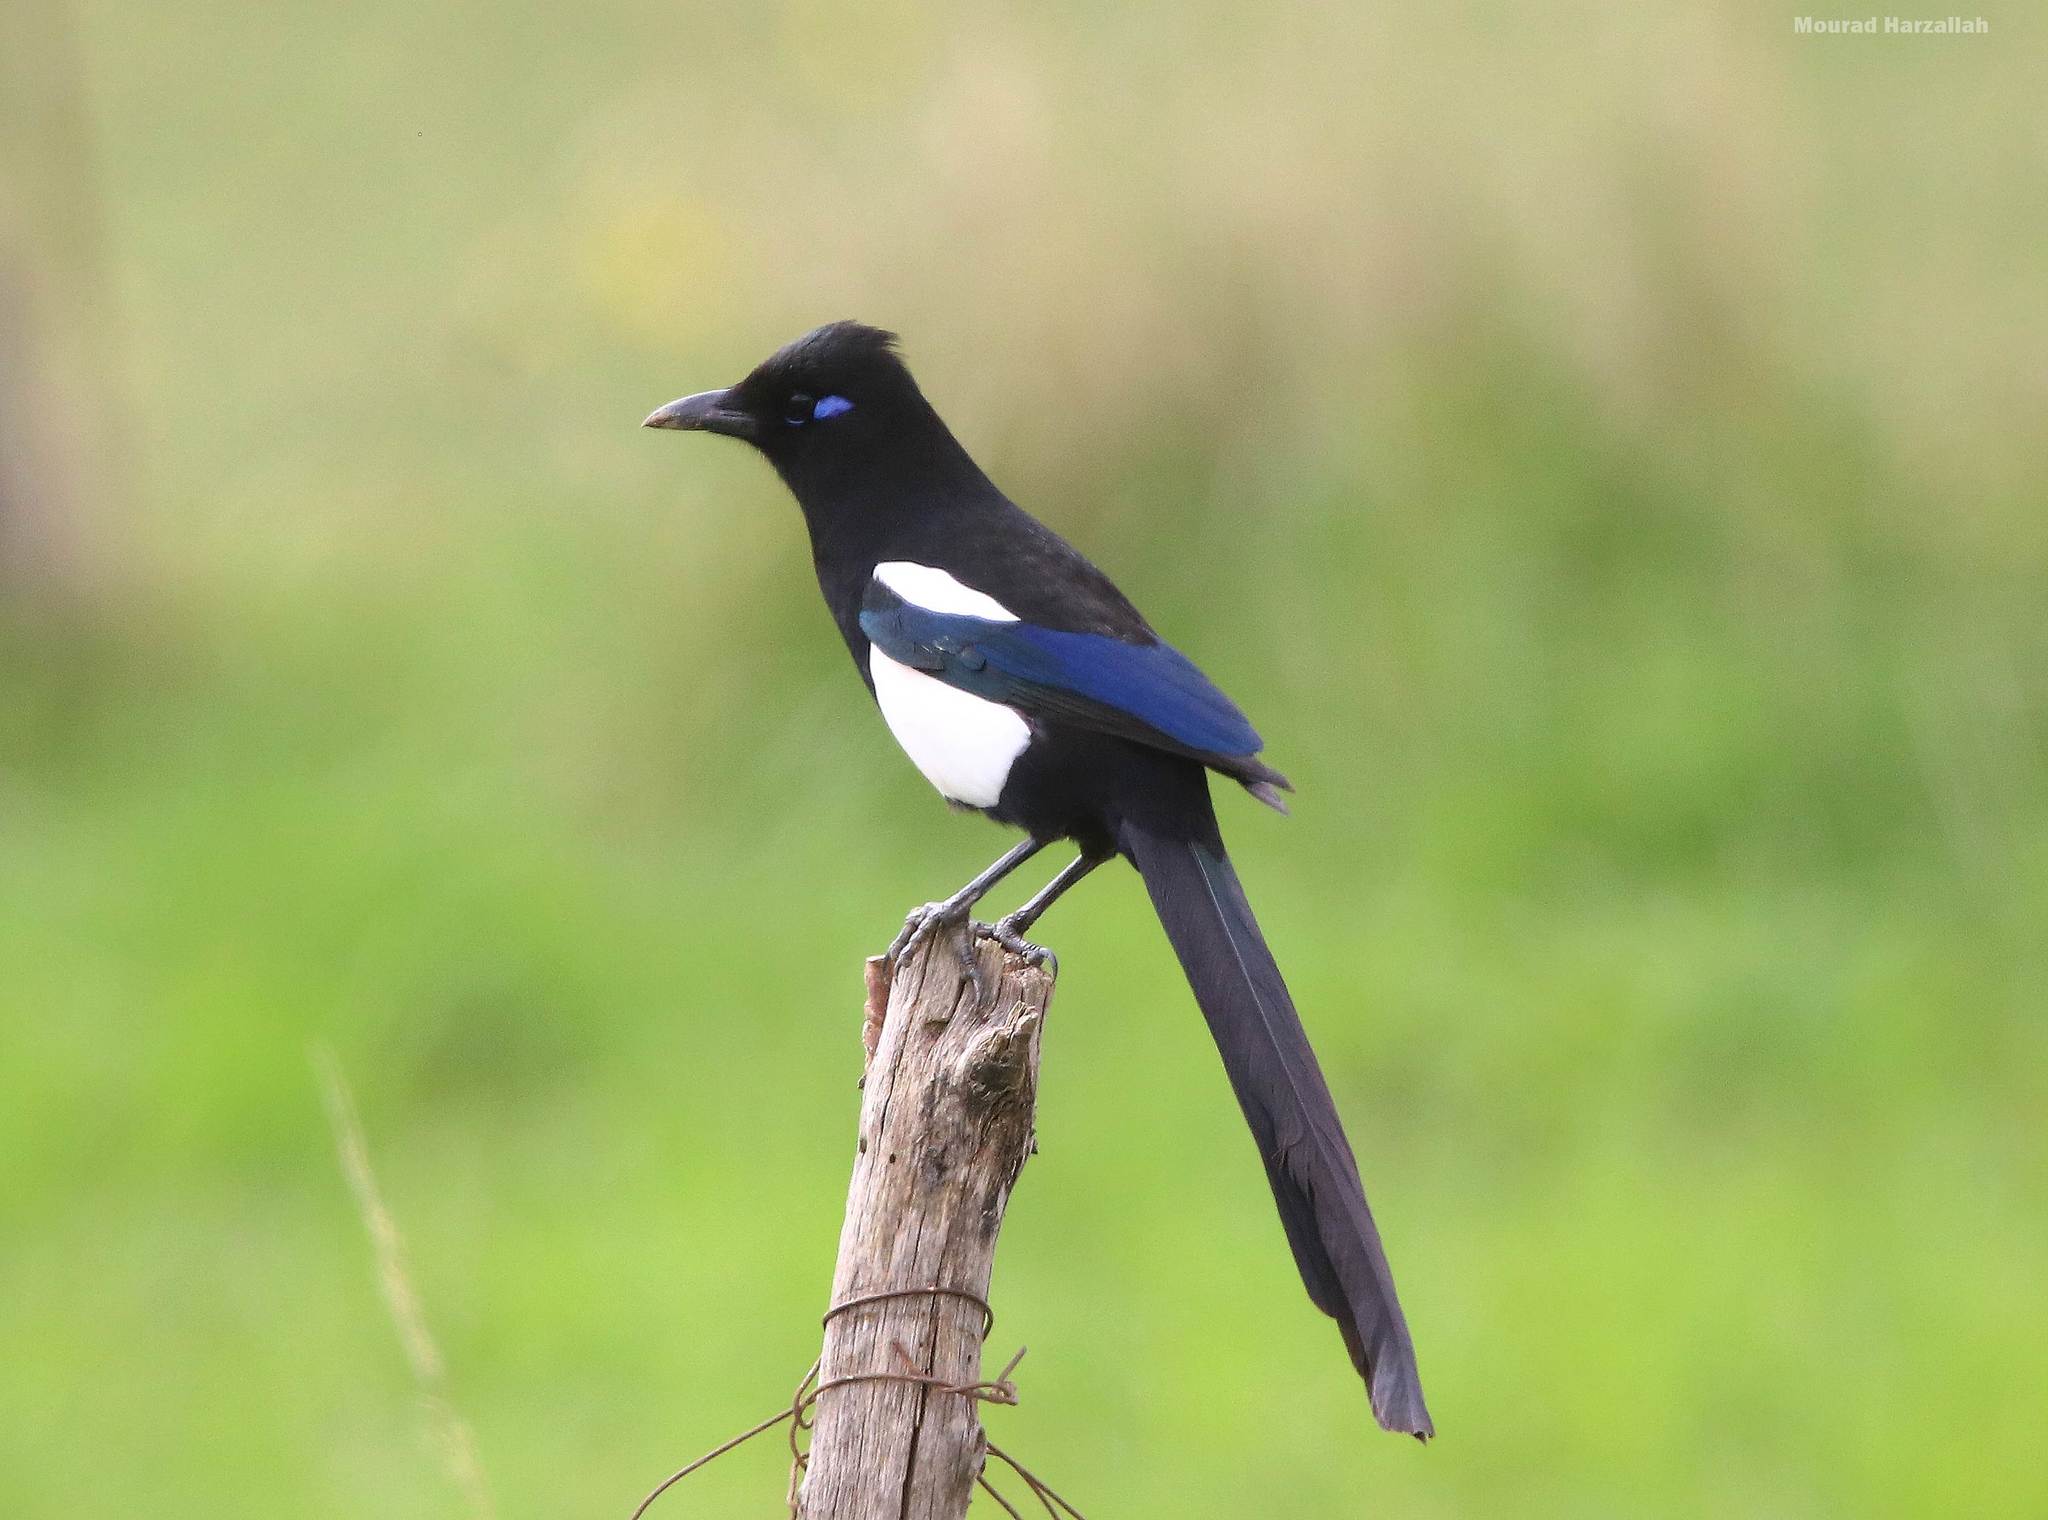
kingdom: Animalia
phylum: Chordata
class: Aves
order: Passeriformes
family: Corvidae
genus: Pica
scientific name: Pica mauritanica
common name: Maghreb magpie
